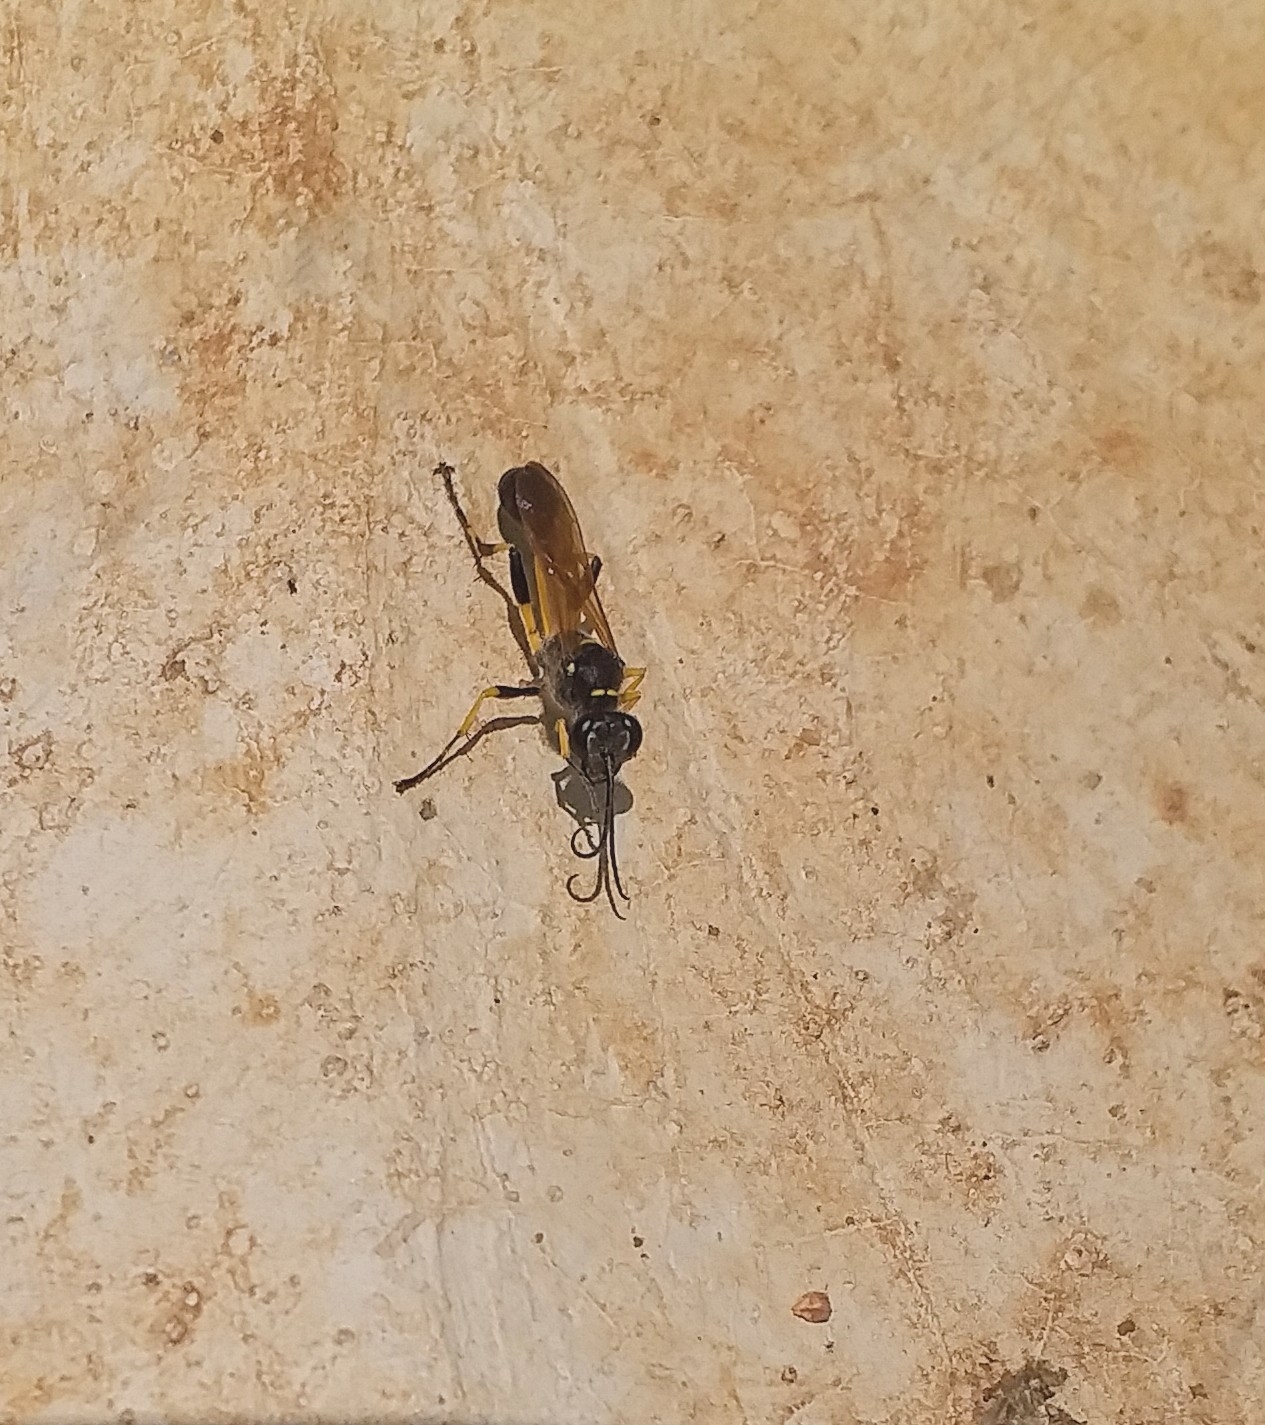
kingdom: Animalia
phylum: Arthropoda
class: Insecta
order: Hymenoptera
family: Sphecidae
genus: Sceliphron
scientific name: Sceliphron madraspatanum
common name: Mud dauber
